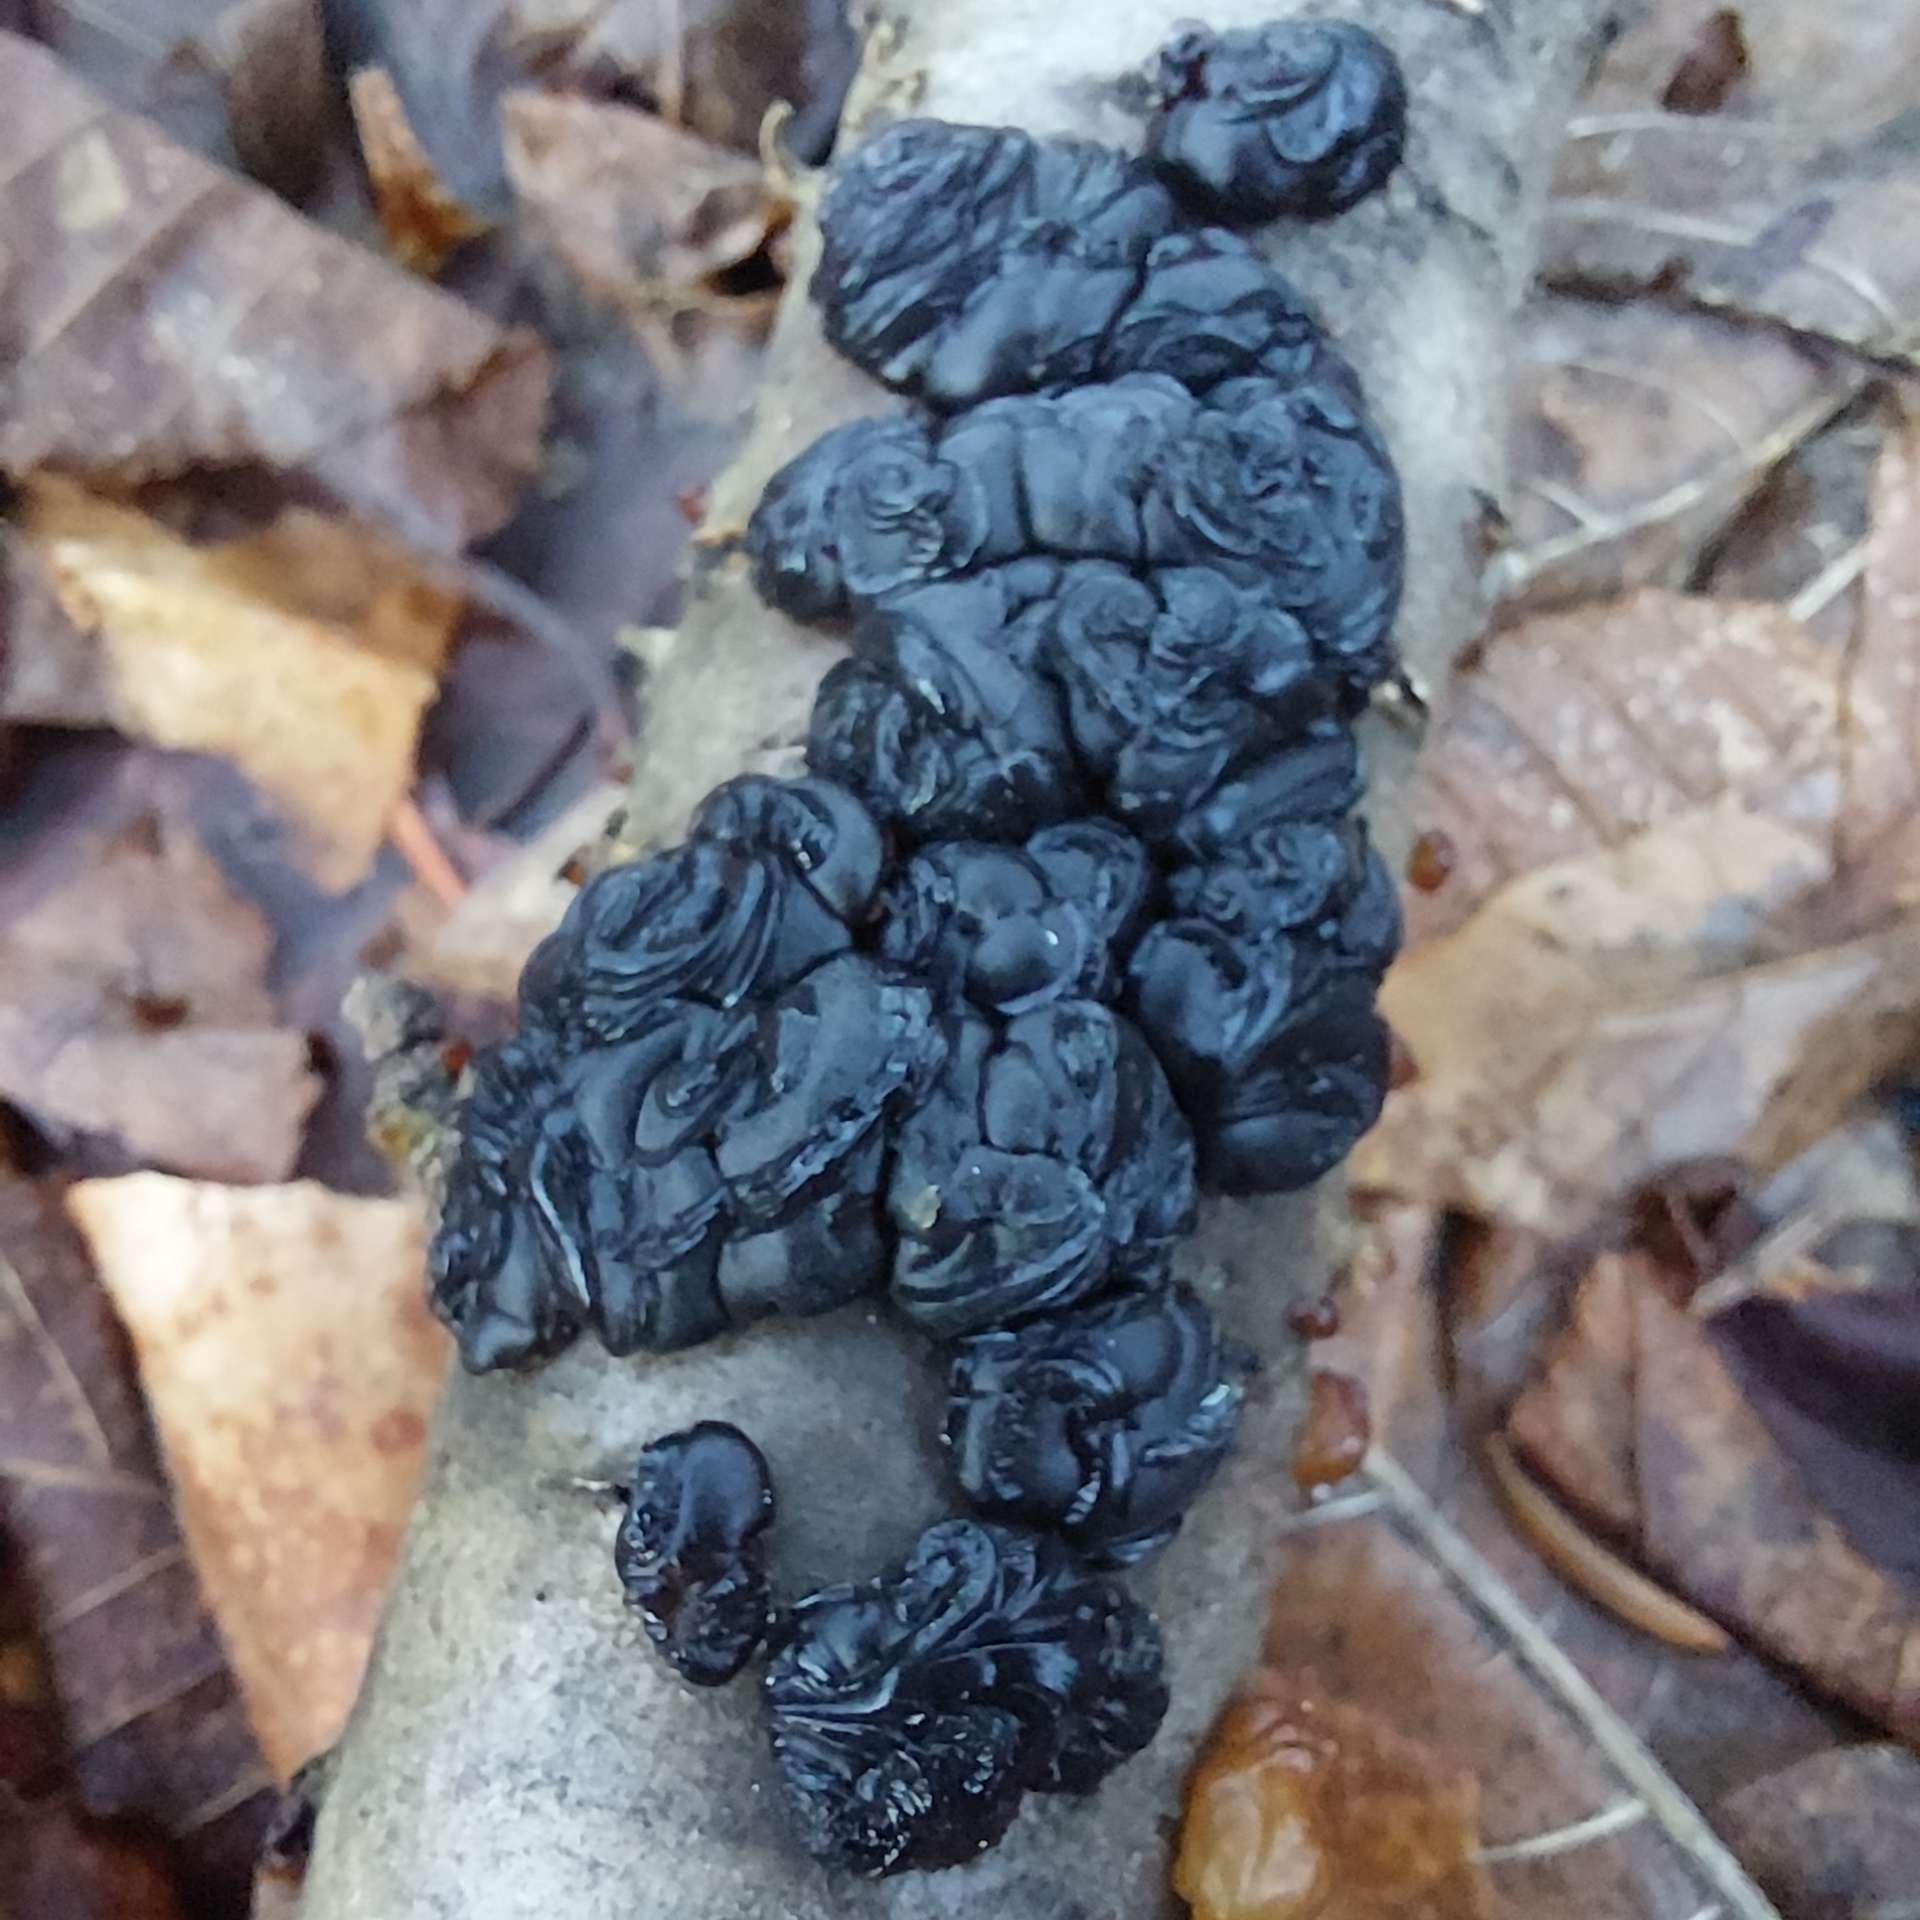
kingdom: Fungi
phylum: Basidiomycota
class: Agaricomycetes
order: Auriculariales
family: Auriculariaceae
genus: Exidia
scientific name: Exidia nigricans
